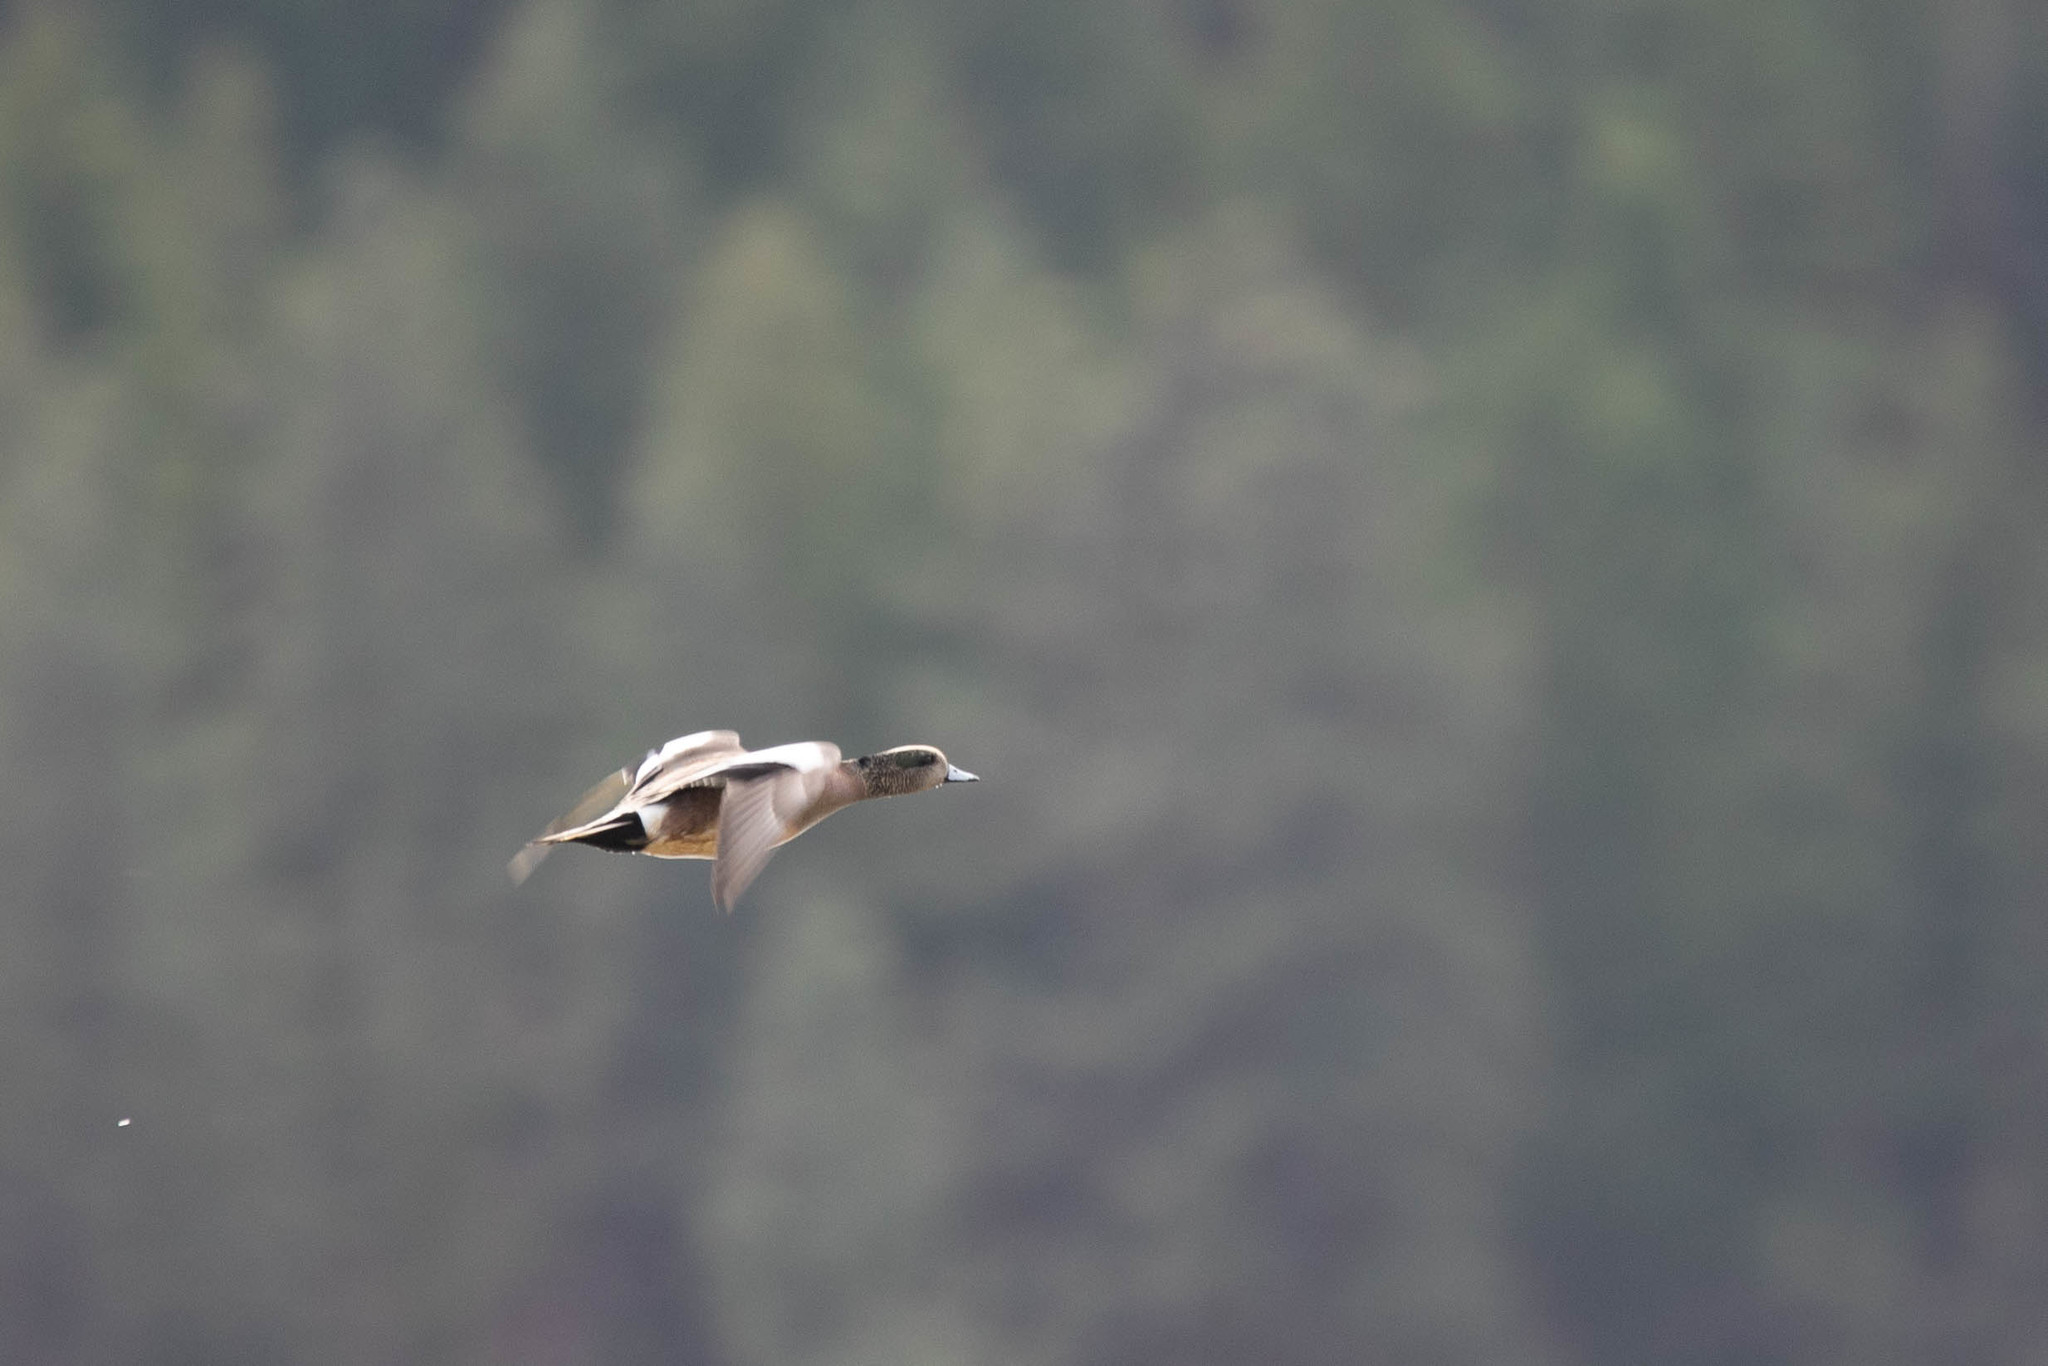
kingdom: Animalia
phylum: Chordata
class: Aves
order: Anseriformes
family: Anatidae
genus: Mareca
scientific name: Mareca americana
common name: American wigeon
